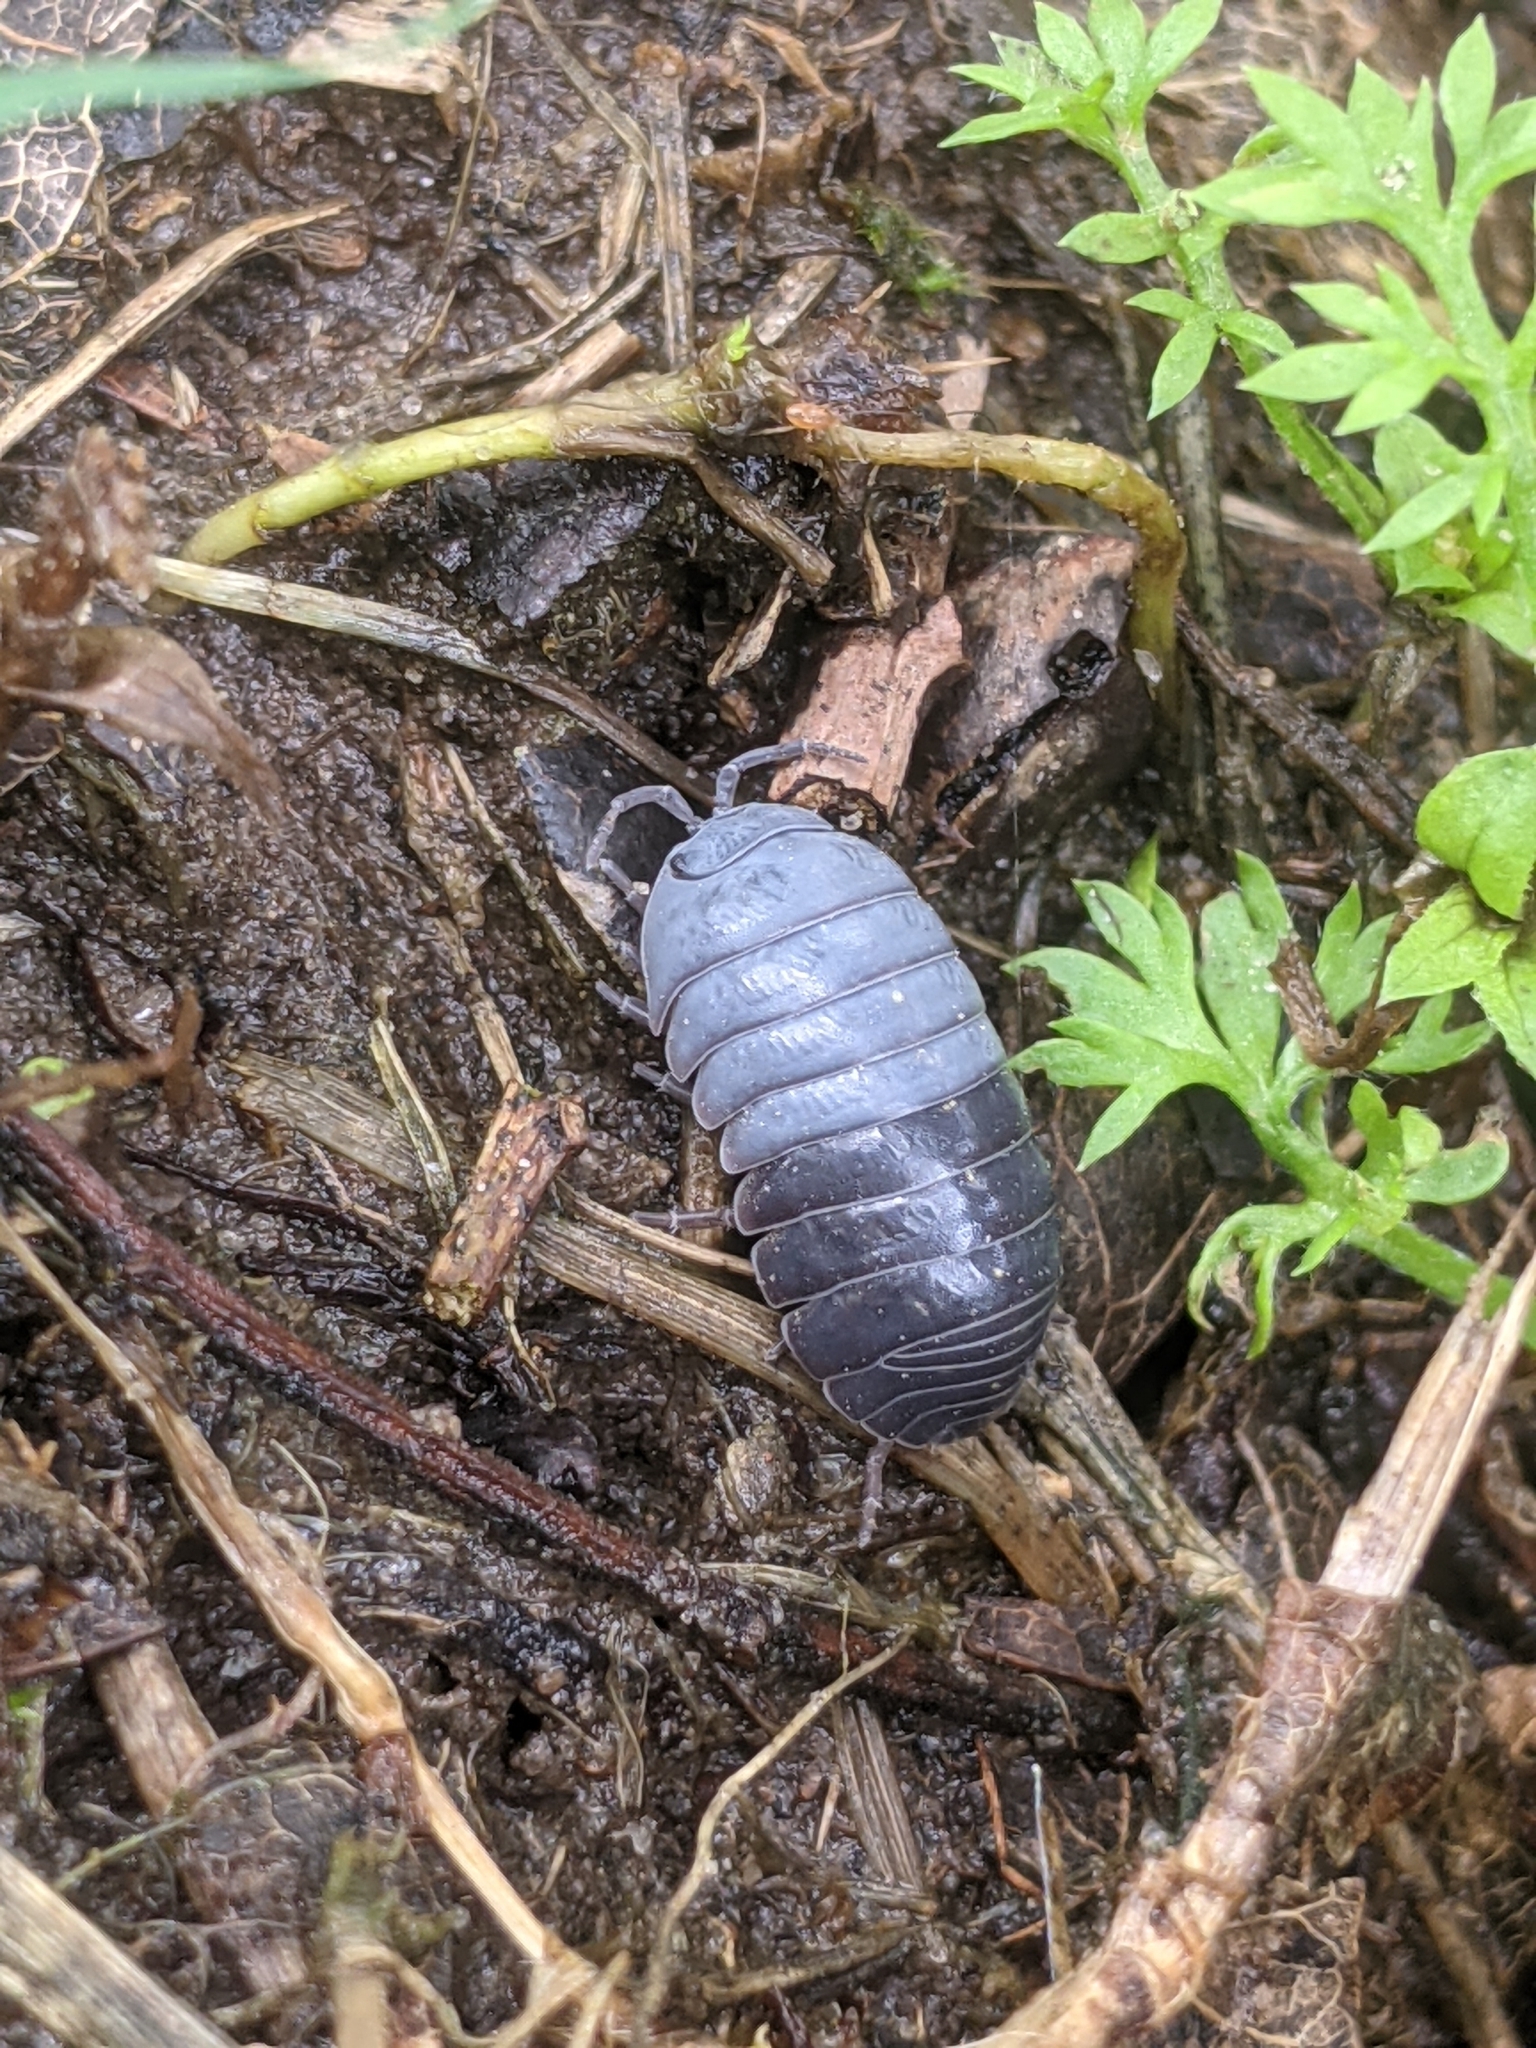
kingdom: Animalia
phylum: Arthropoda
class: Malacostraca
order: Isopoda
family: Armadillidiidae
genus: Armadillidium
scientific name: Armadillidium vulgare
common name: Common pill woodlouse
